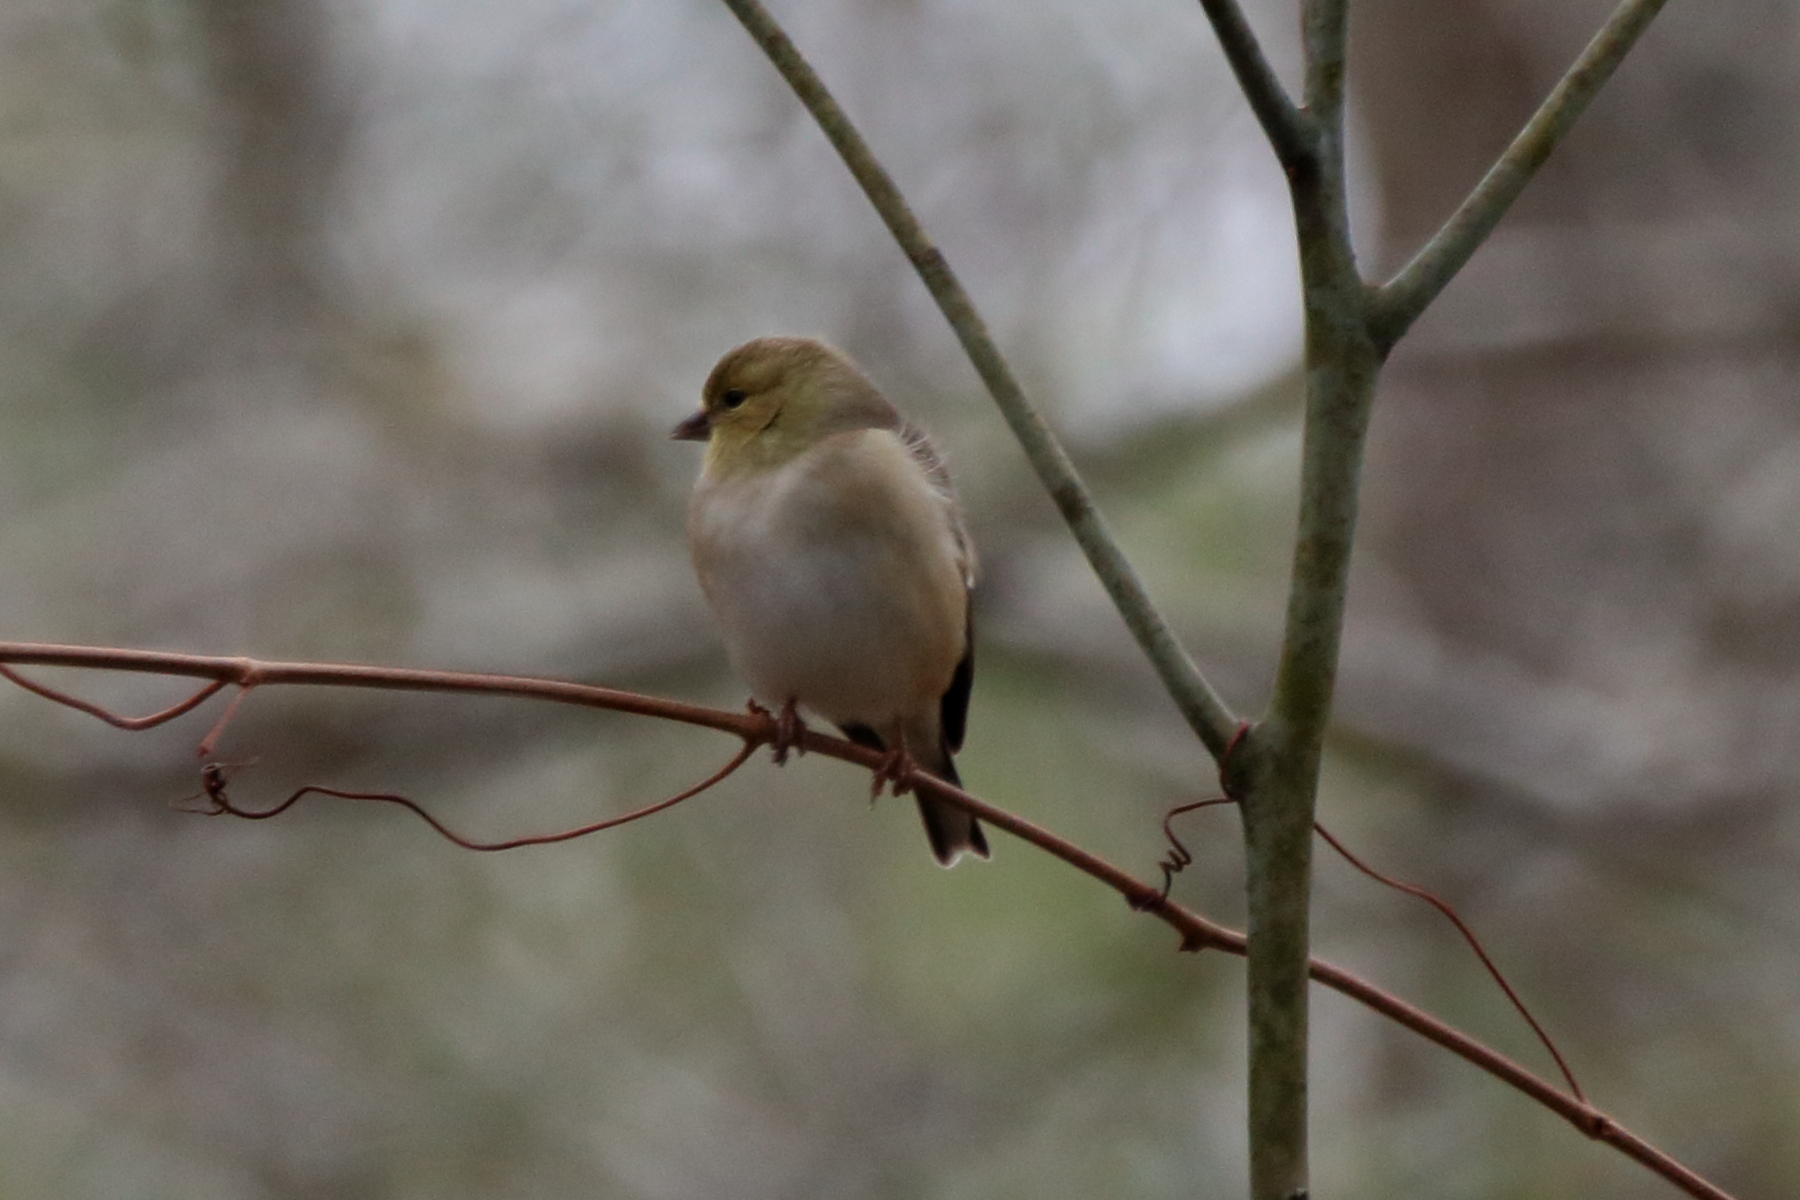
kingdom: Animalia
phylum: Chordata
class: Aves
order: Passeriformes
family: Fringillidae
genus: Spinus
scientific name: Spinus tristis
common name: American goldfinch
